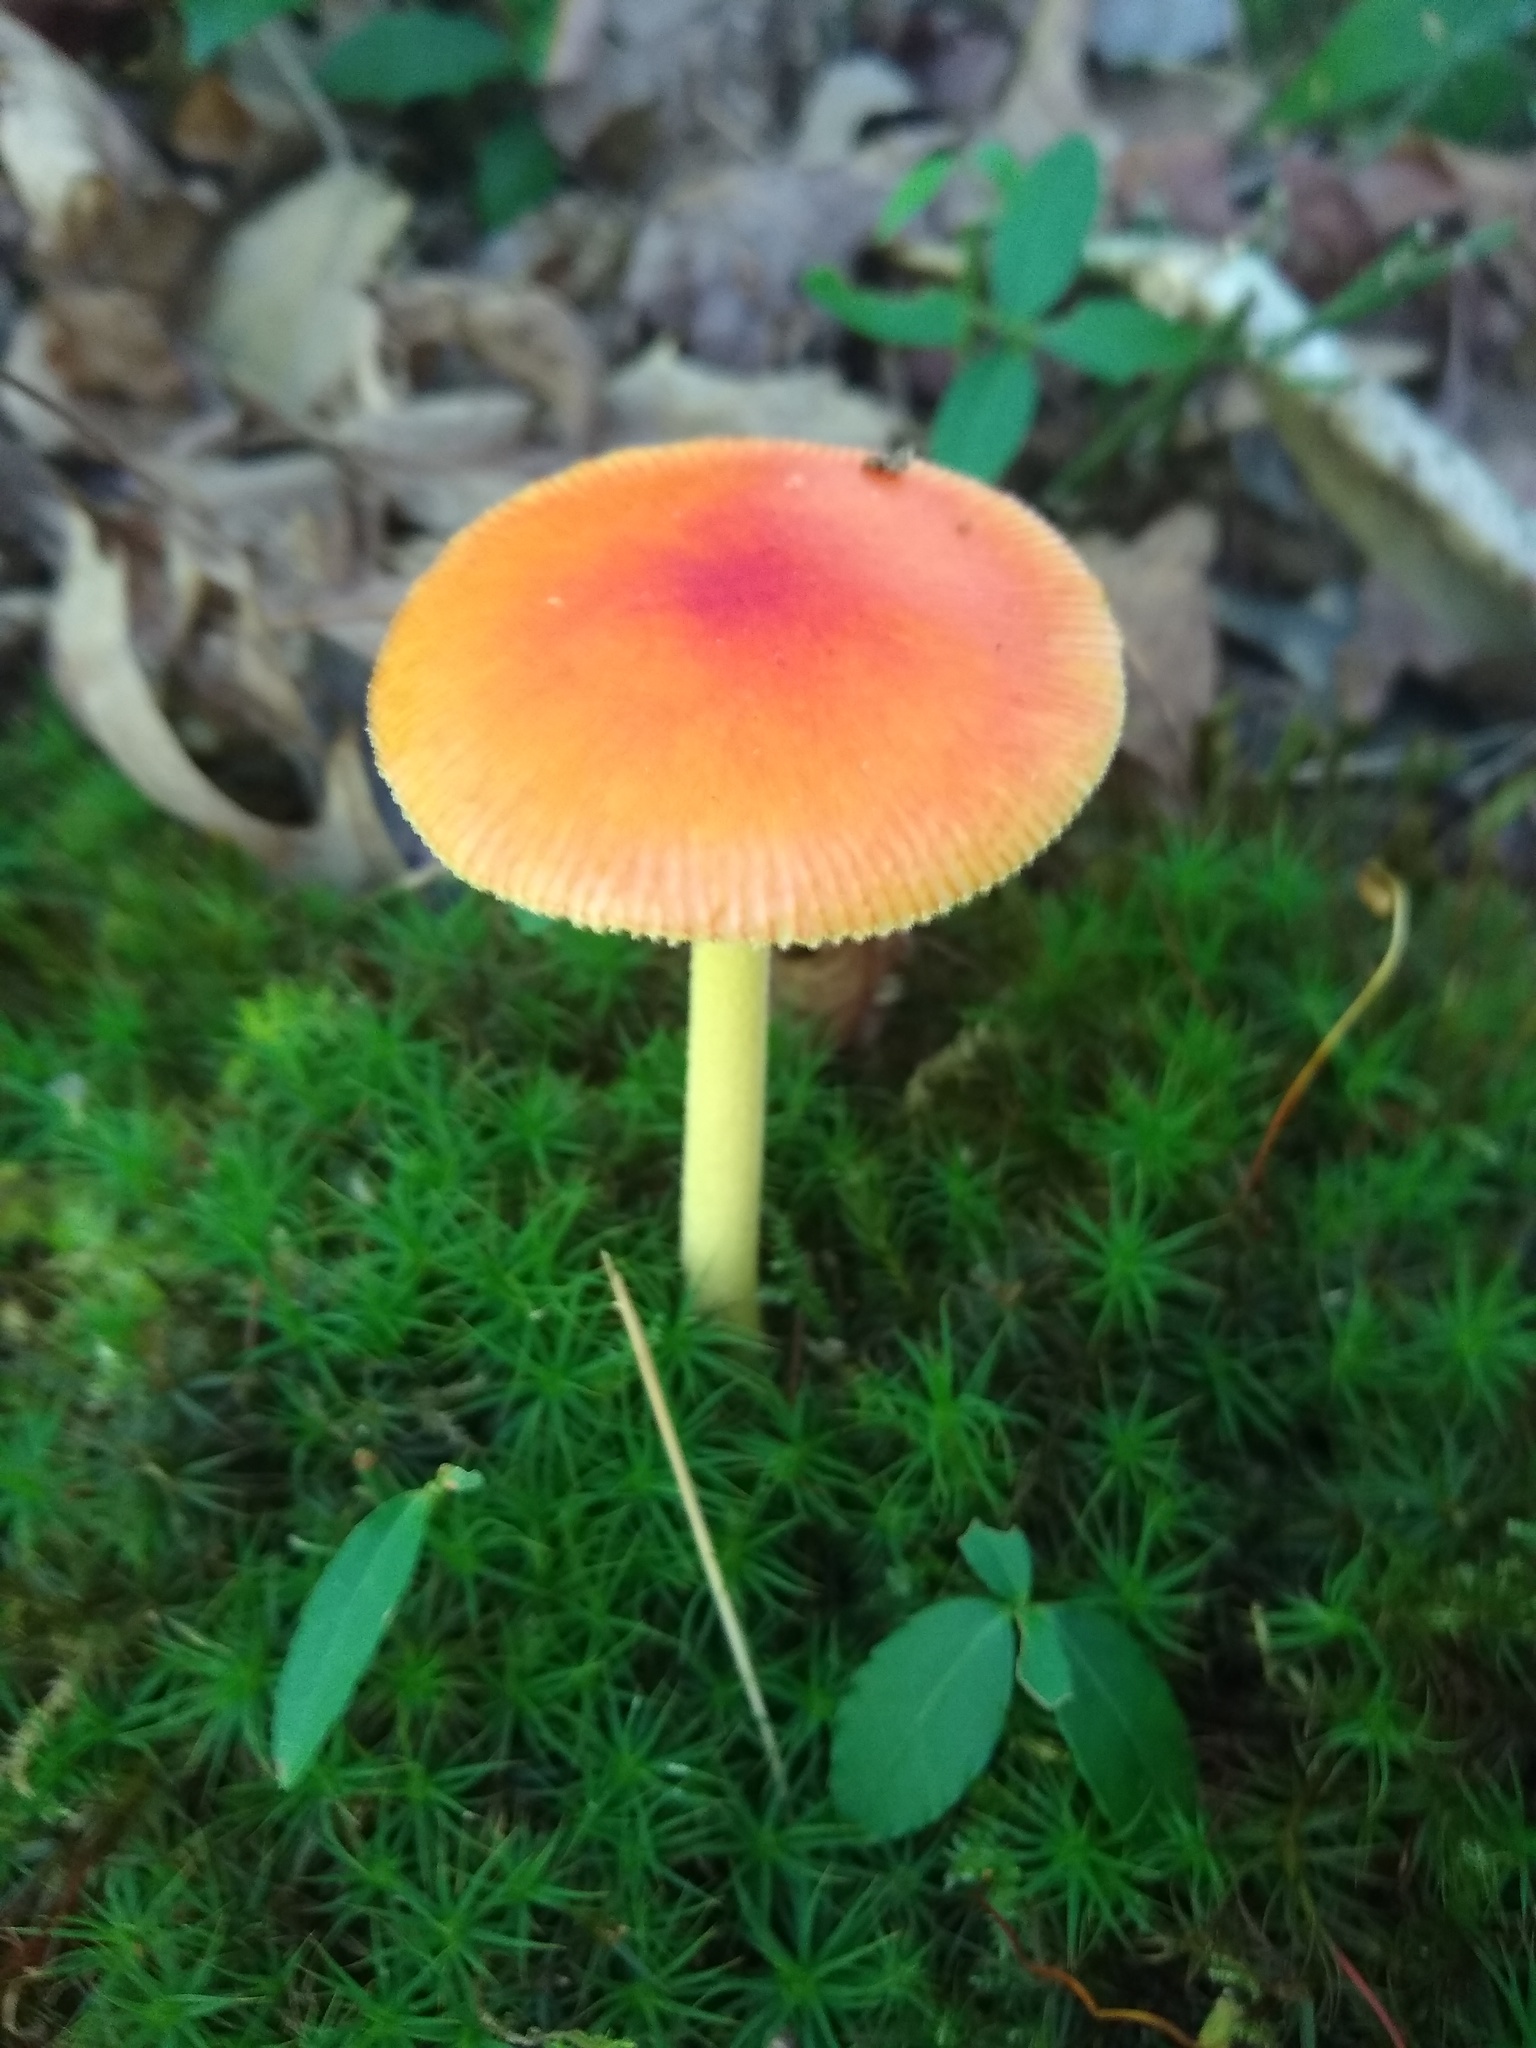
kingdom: Fungi
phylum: Basidiomycota
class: Agaricomycetes
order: Agaricales
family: Amanitaceae
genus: Amanita
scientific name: Amanita parcivolvata
